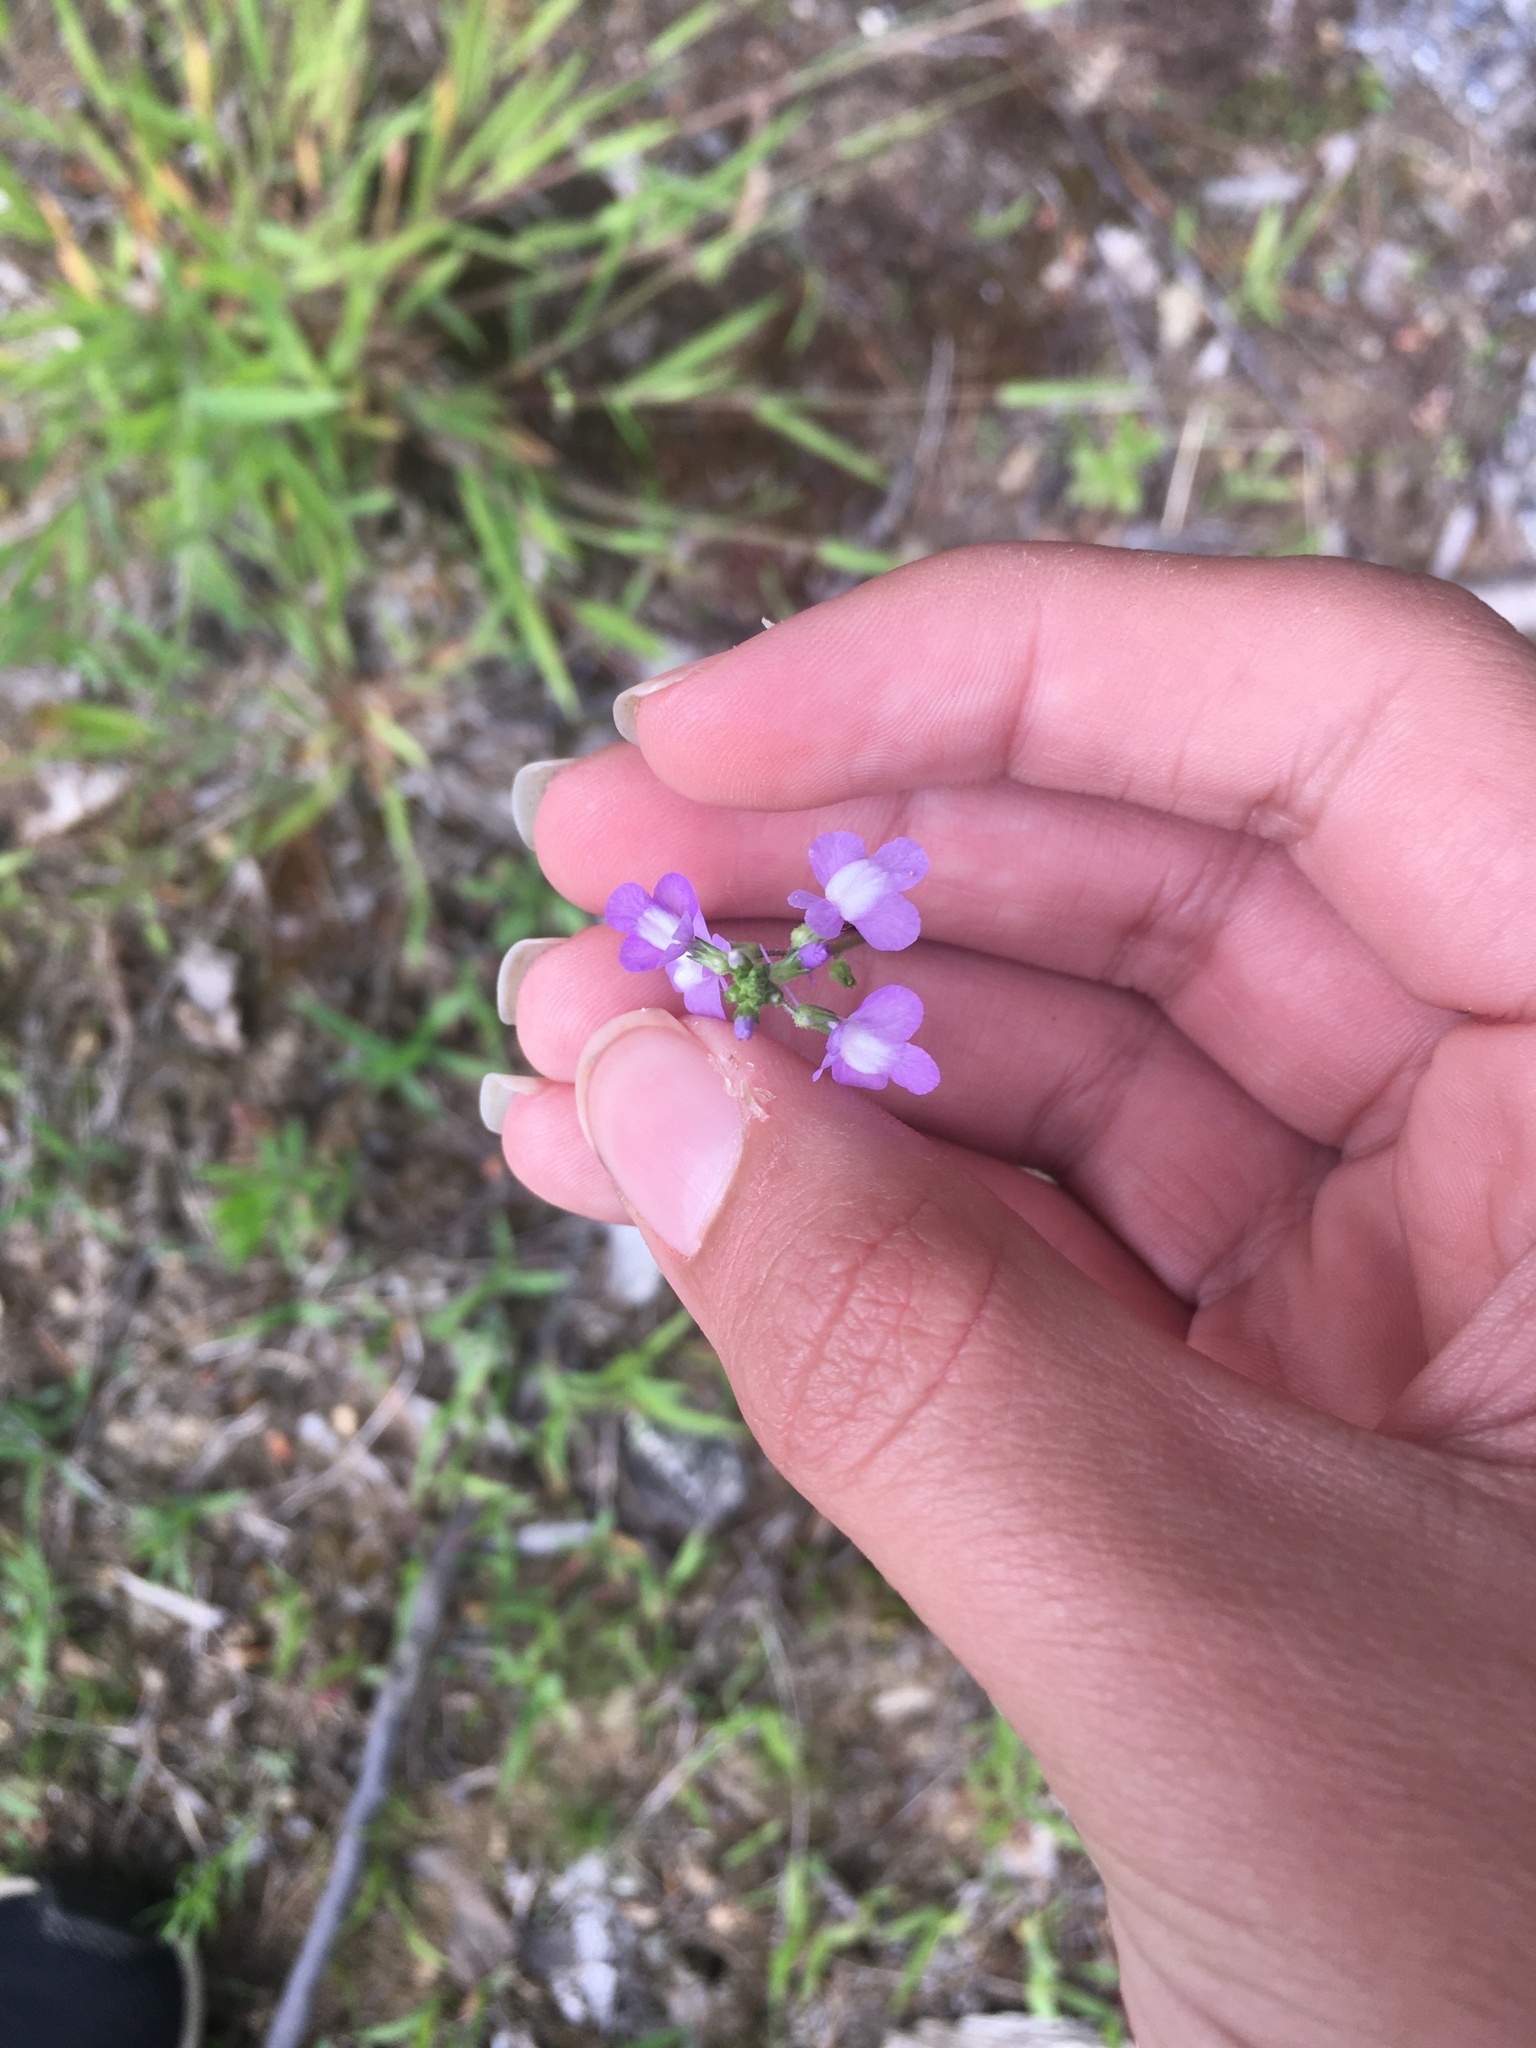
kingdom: Plantae
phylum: Tracheophyta
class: Magnoliopsida
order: Lamiales
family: Plantaginaceae
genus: Nuttallanthus
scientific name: Nuttallanthus canadensis
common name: Blue toadflax
